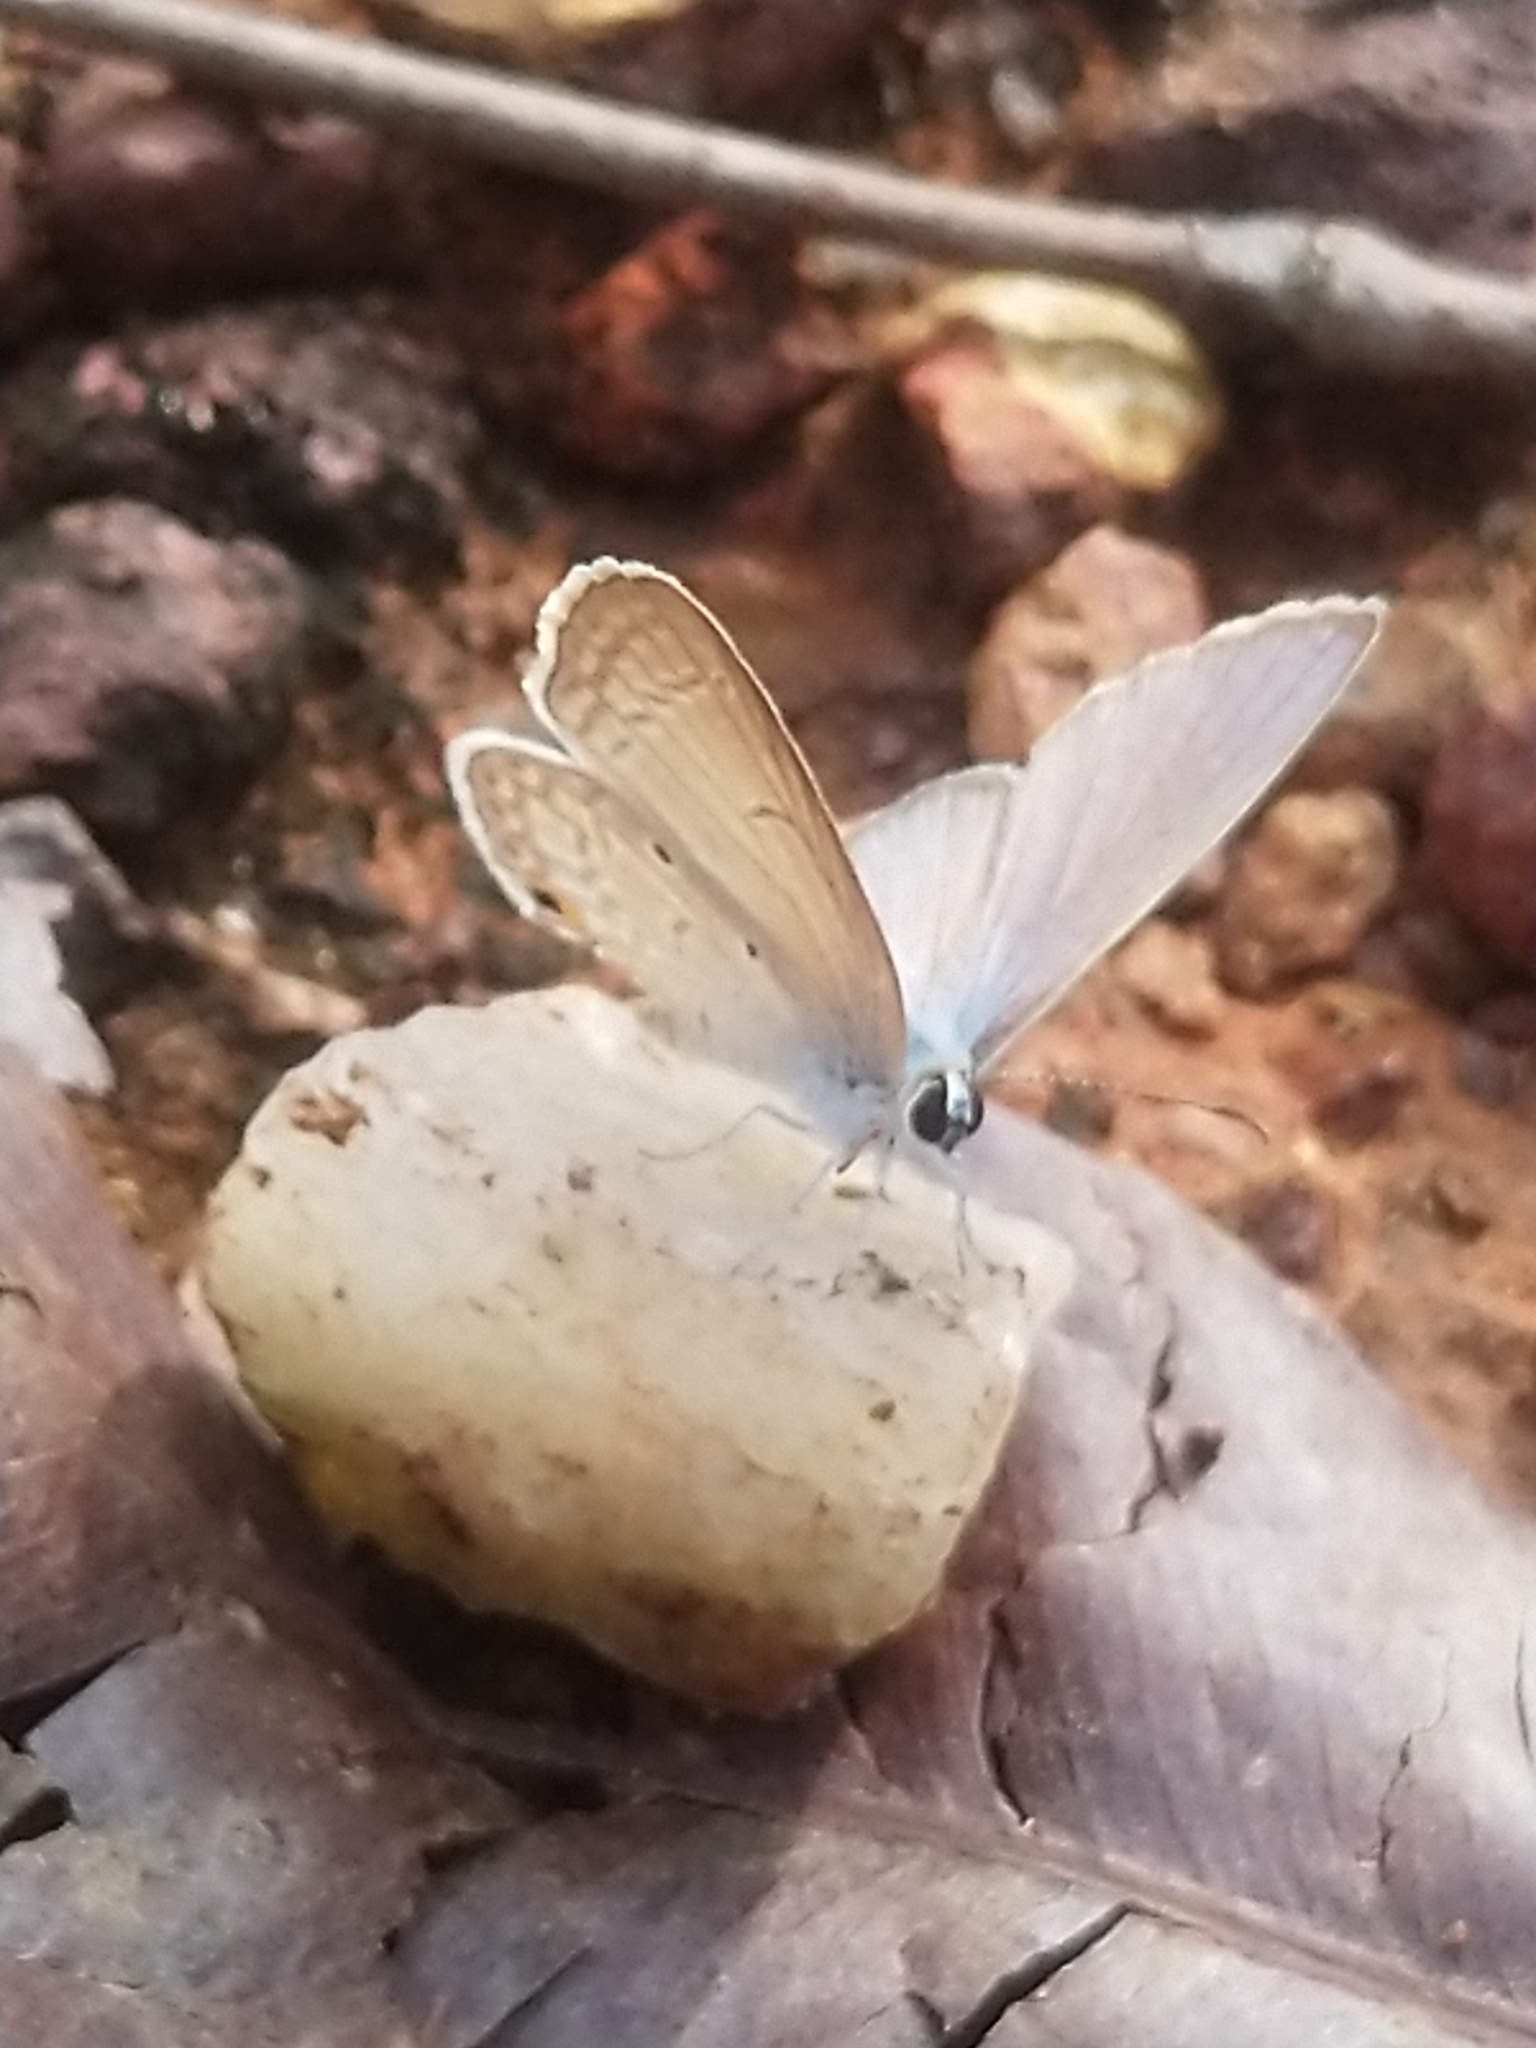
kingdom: Animalia
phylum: Arthropoda
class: Insecta
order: Lepidoptera
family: Lycaenidae
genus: Euchrysops
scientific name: Euchrysops cnejus
